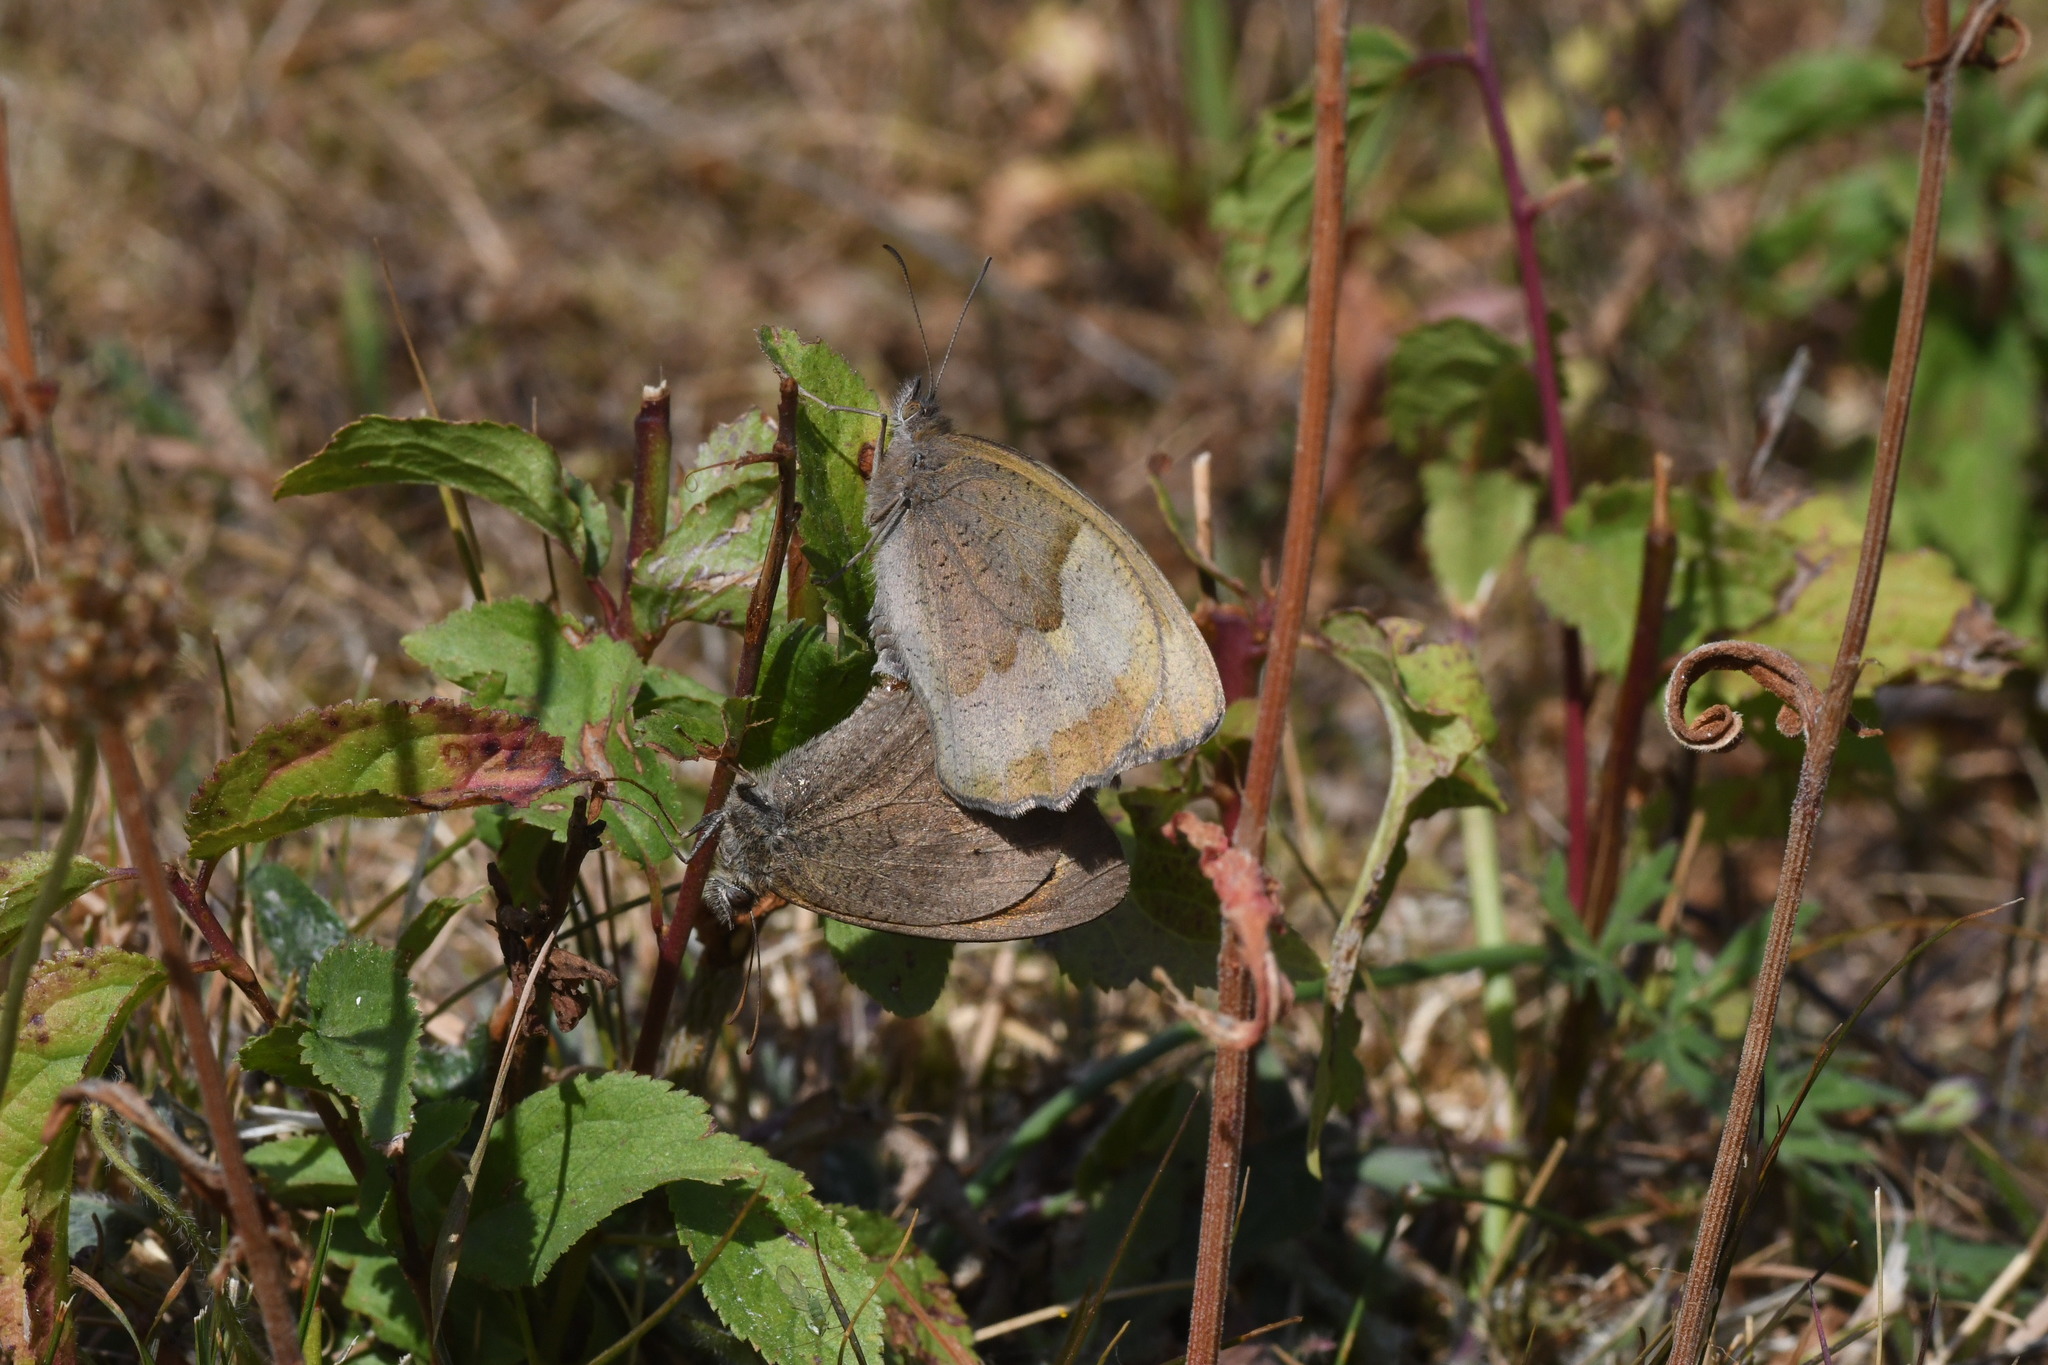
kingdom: Animalia
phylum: Arthropoda
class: Insecta
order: Lepidoptera
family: Nymphalidae
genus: Maniola
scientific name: Maniola jurtina
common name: Meadow brown
